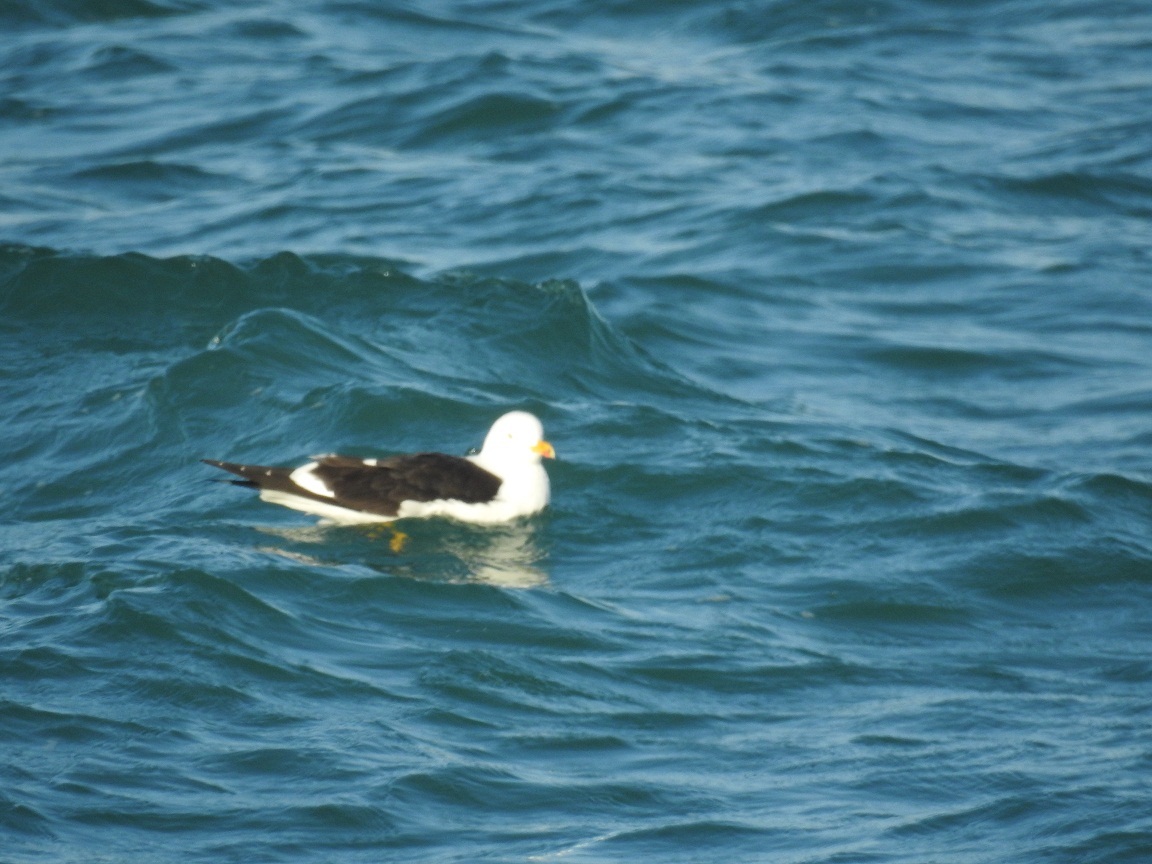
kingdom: Animalia
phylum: Chordata
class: Aves
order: Charadriiformes
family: Laridae
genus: Larus
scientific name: Larus fuscus
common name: Lesser black-backed gull
